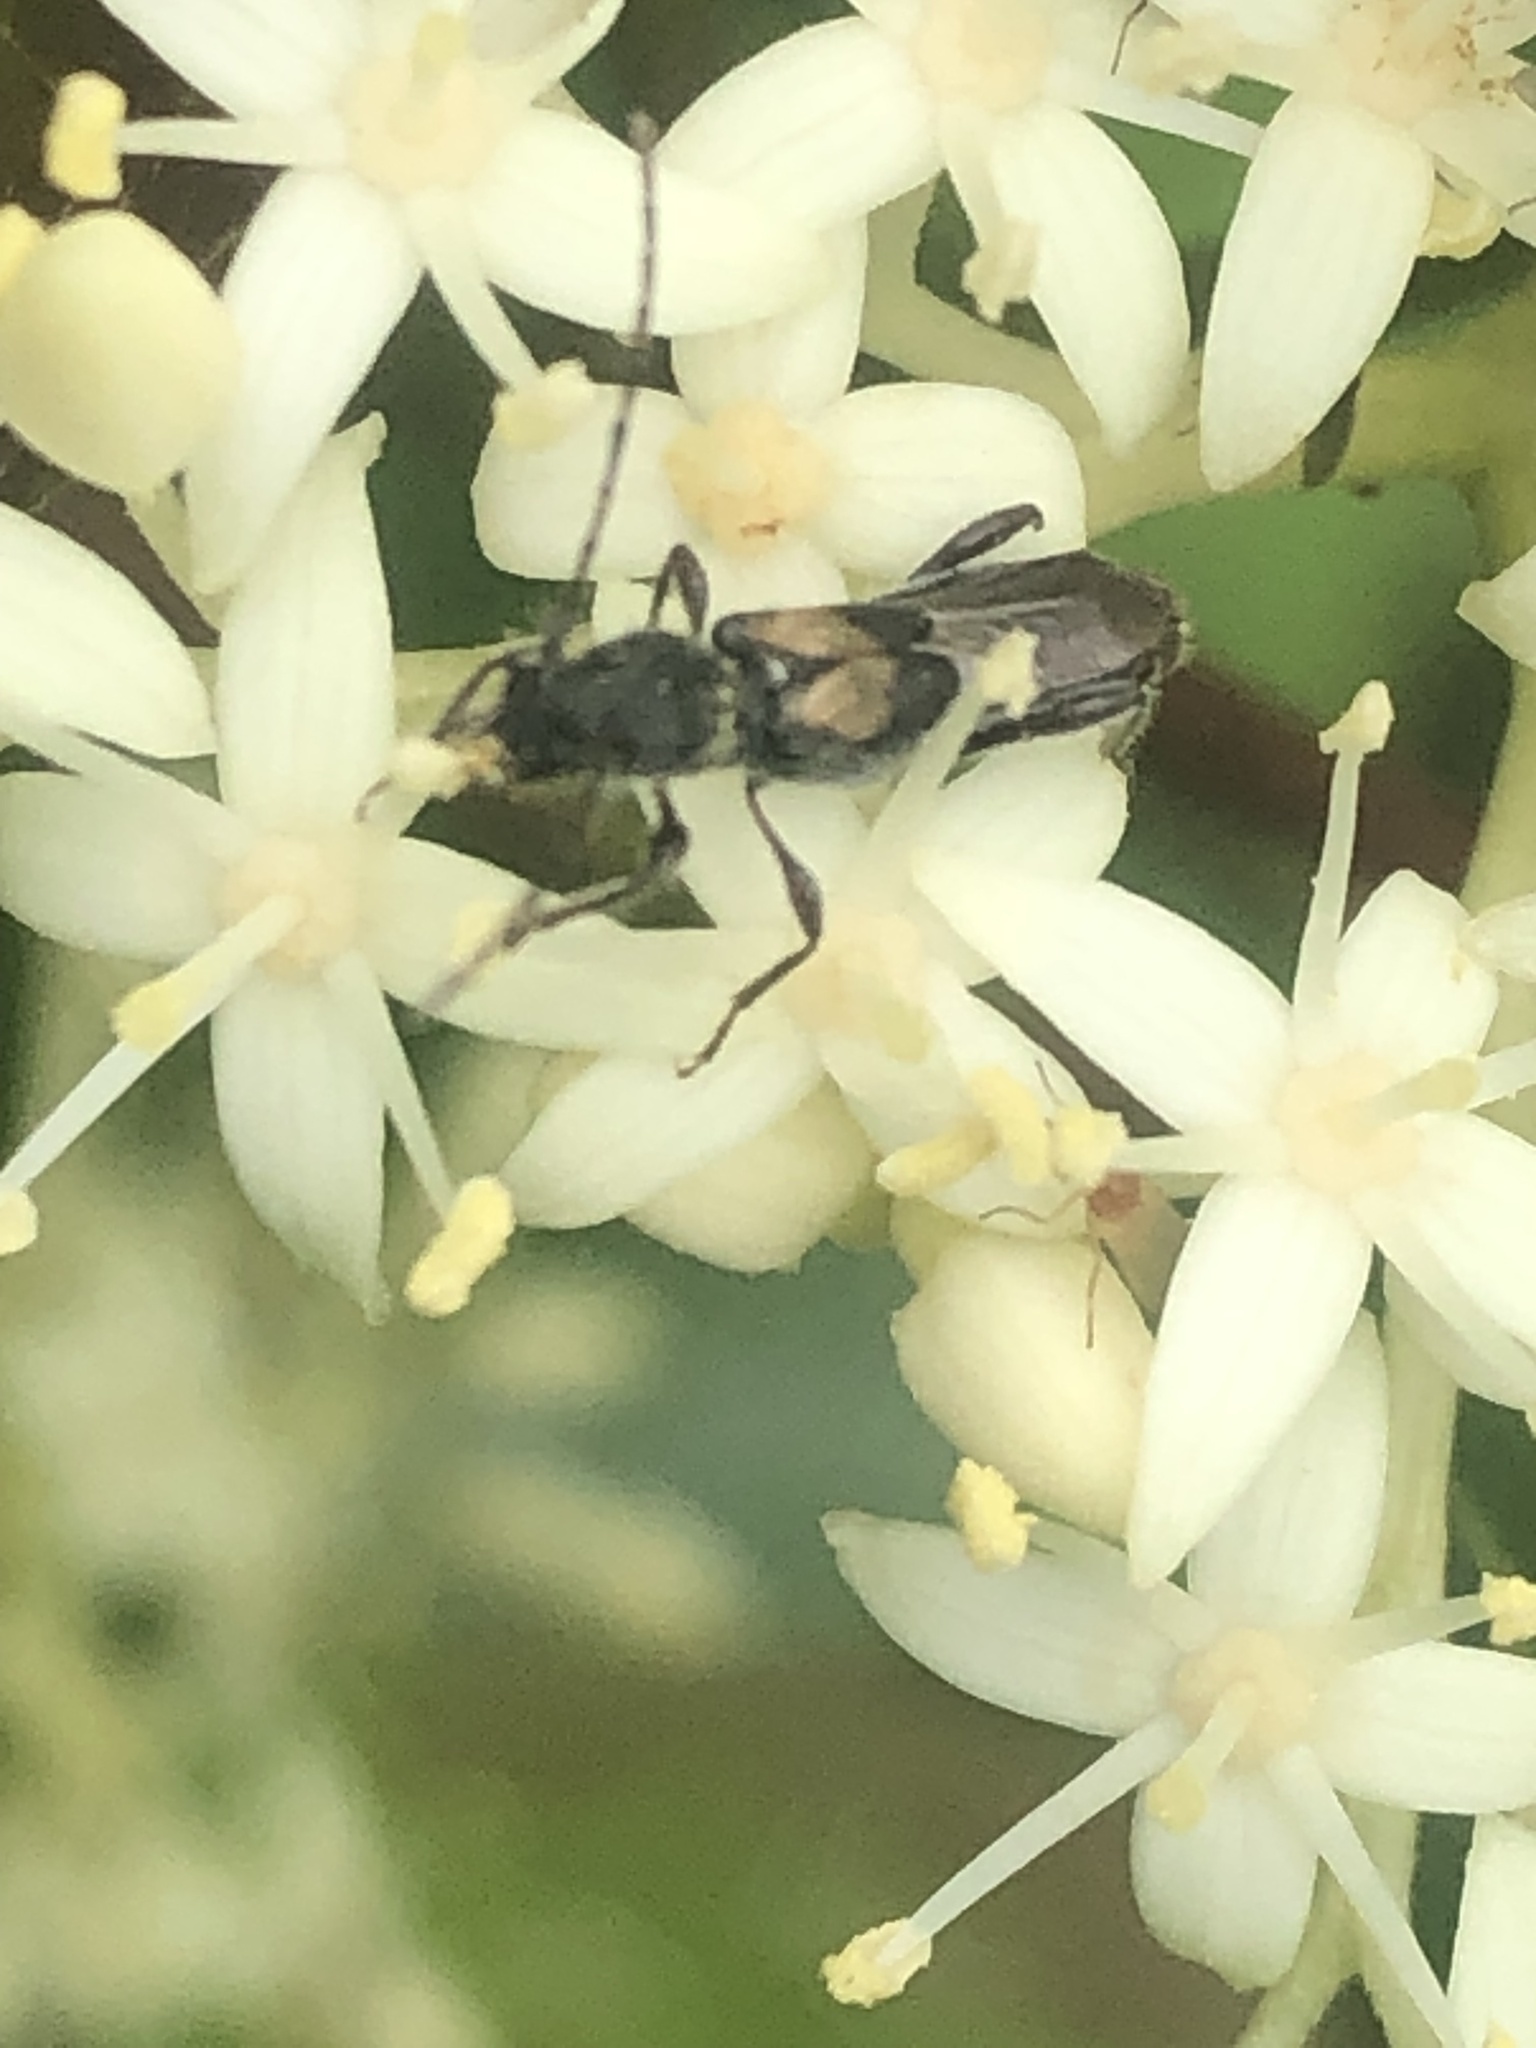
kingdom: Animalia
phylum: Arthropoda
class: Insecta
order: Coleoptera
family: Cerambycidae
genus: Molorchus
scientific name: Molorchus bimaculatus
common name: Bimaculate longhorn beetle
